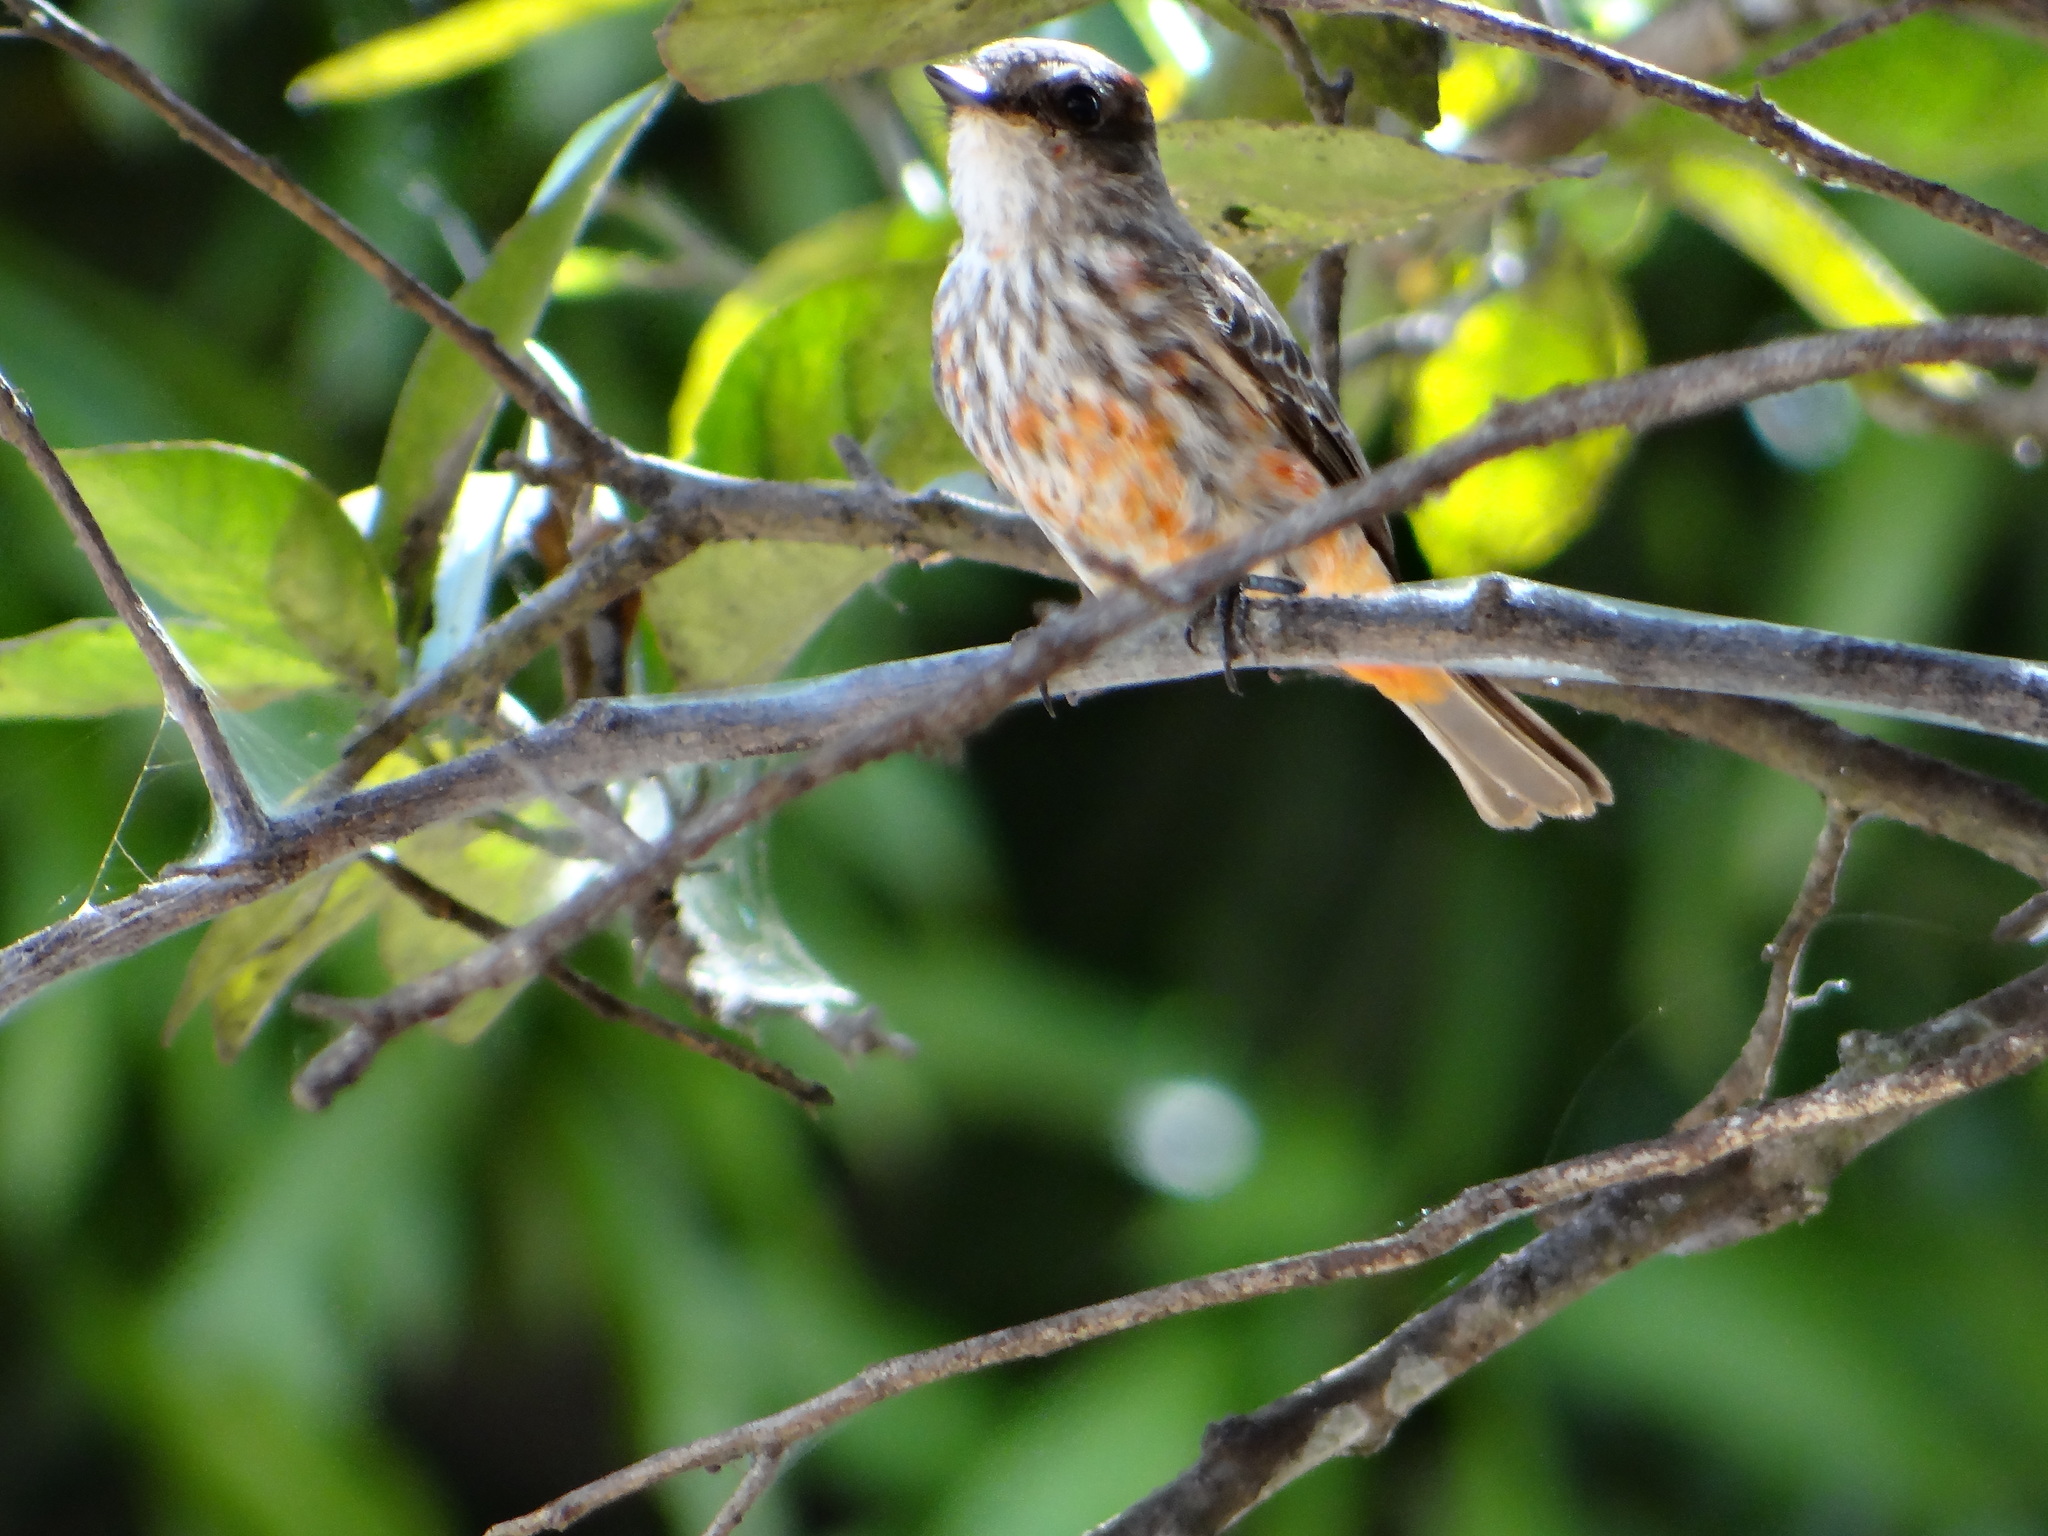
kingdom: Animalia
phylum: Chordata
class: Aves
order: Passeriformes
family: Tyrannidae
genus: Pyrocephalus
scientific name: Pyrocephalus rubinus
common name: Vermilion flycatcher
